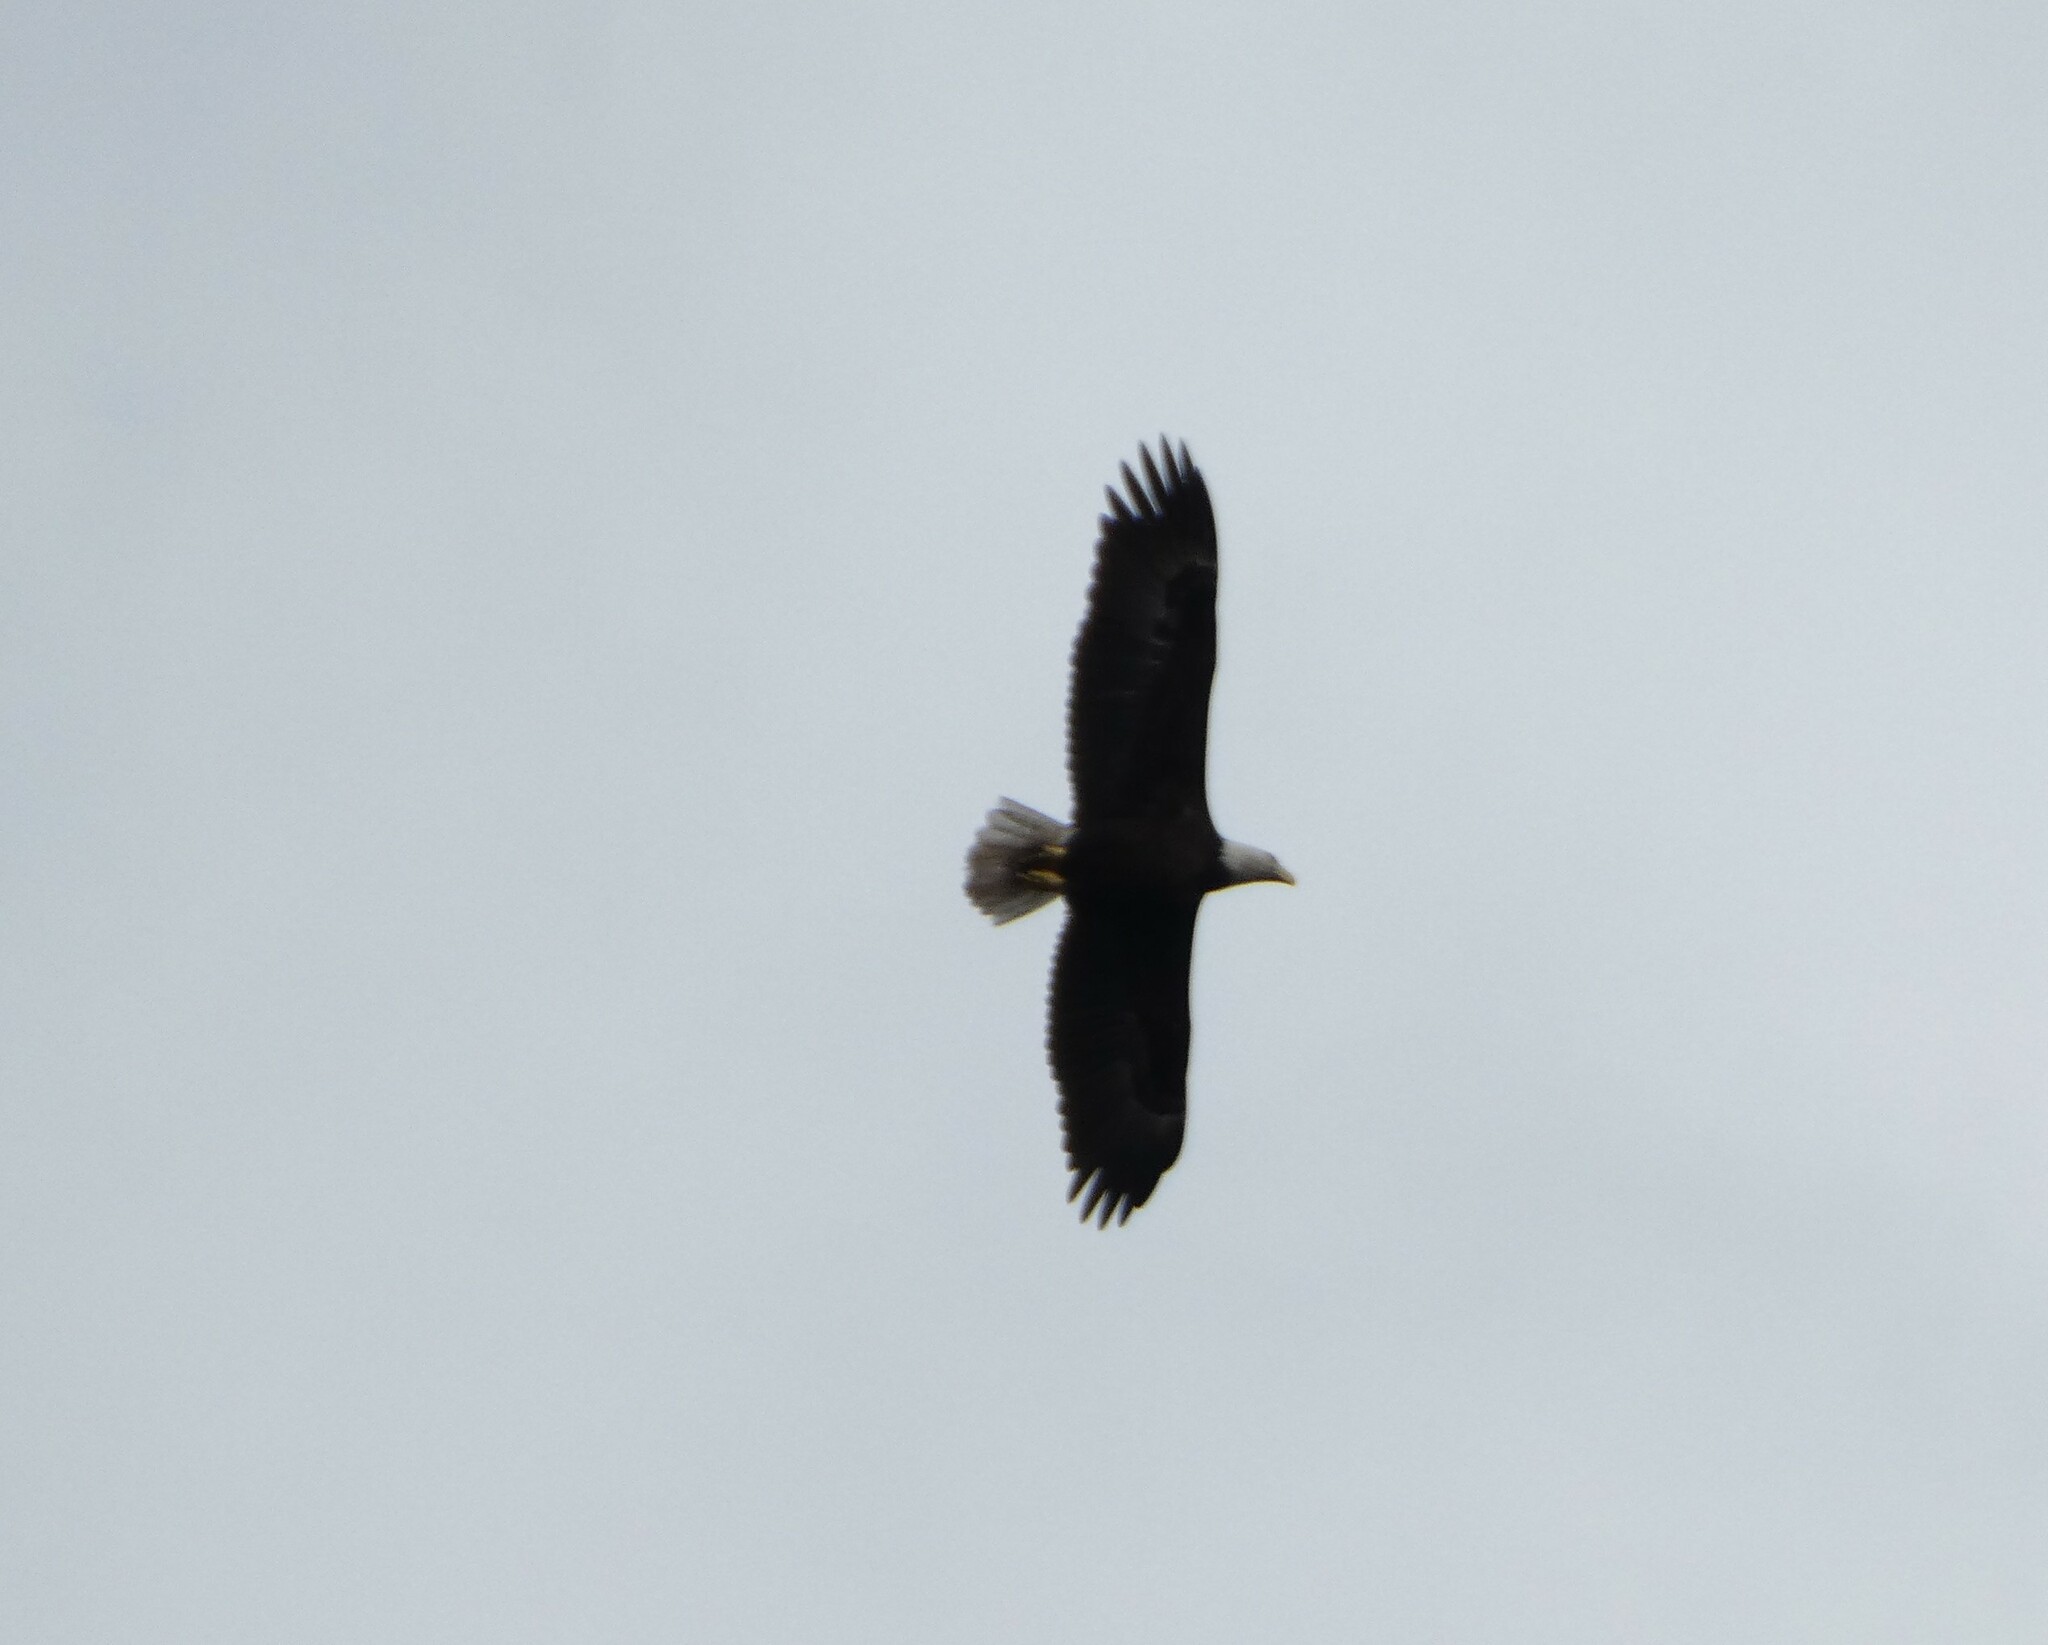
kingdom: Animalia
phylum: Chordata
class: Aves
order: Accipitriformes
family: Accipitridae
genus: Haliaeetus
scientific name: Haliaeetus leucocephalus
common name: Bald eagle
